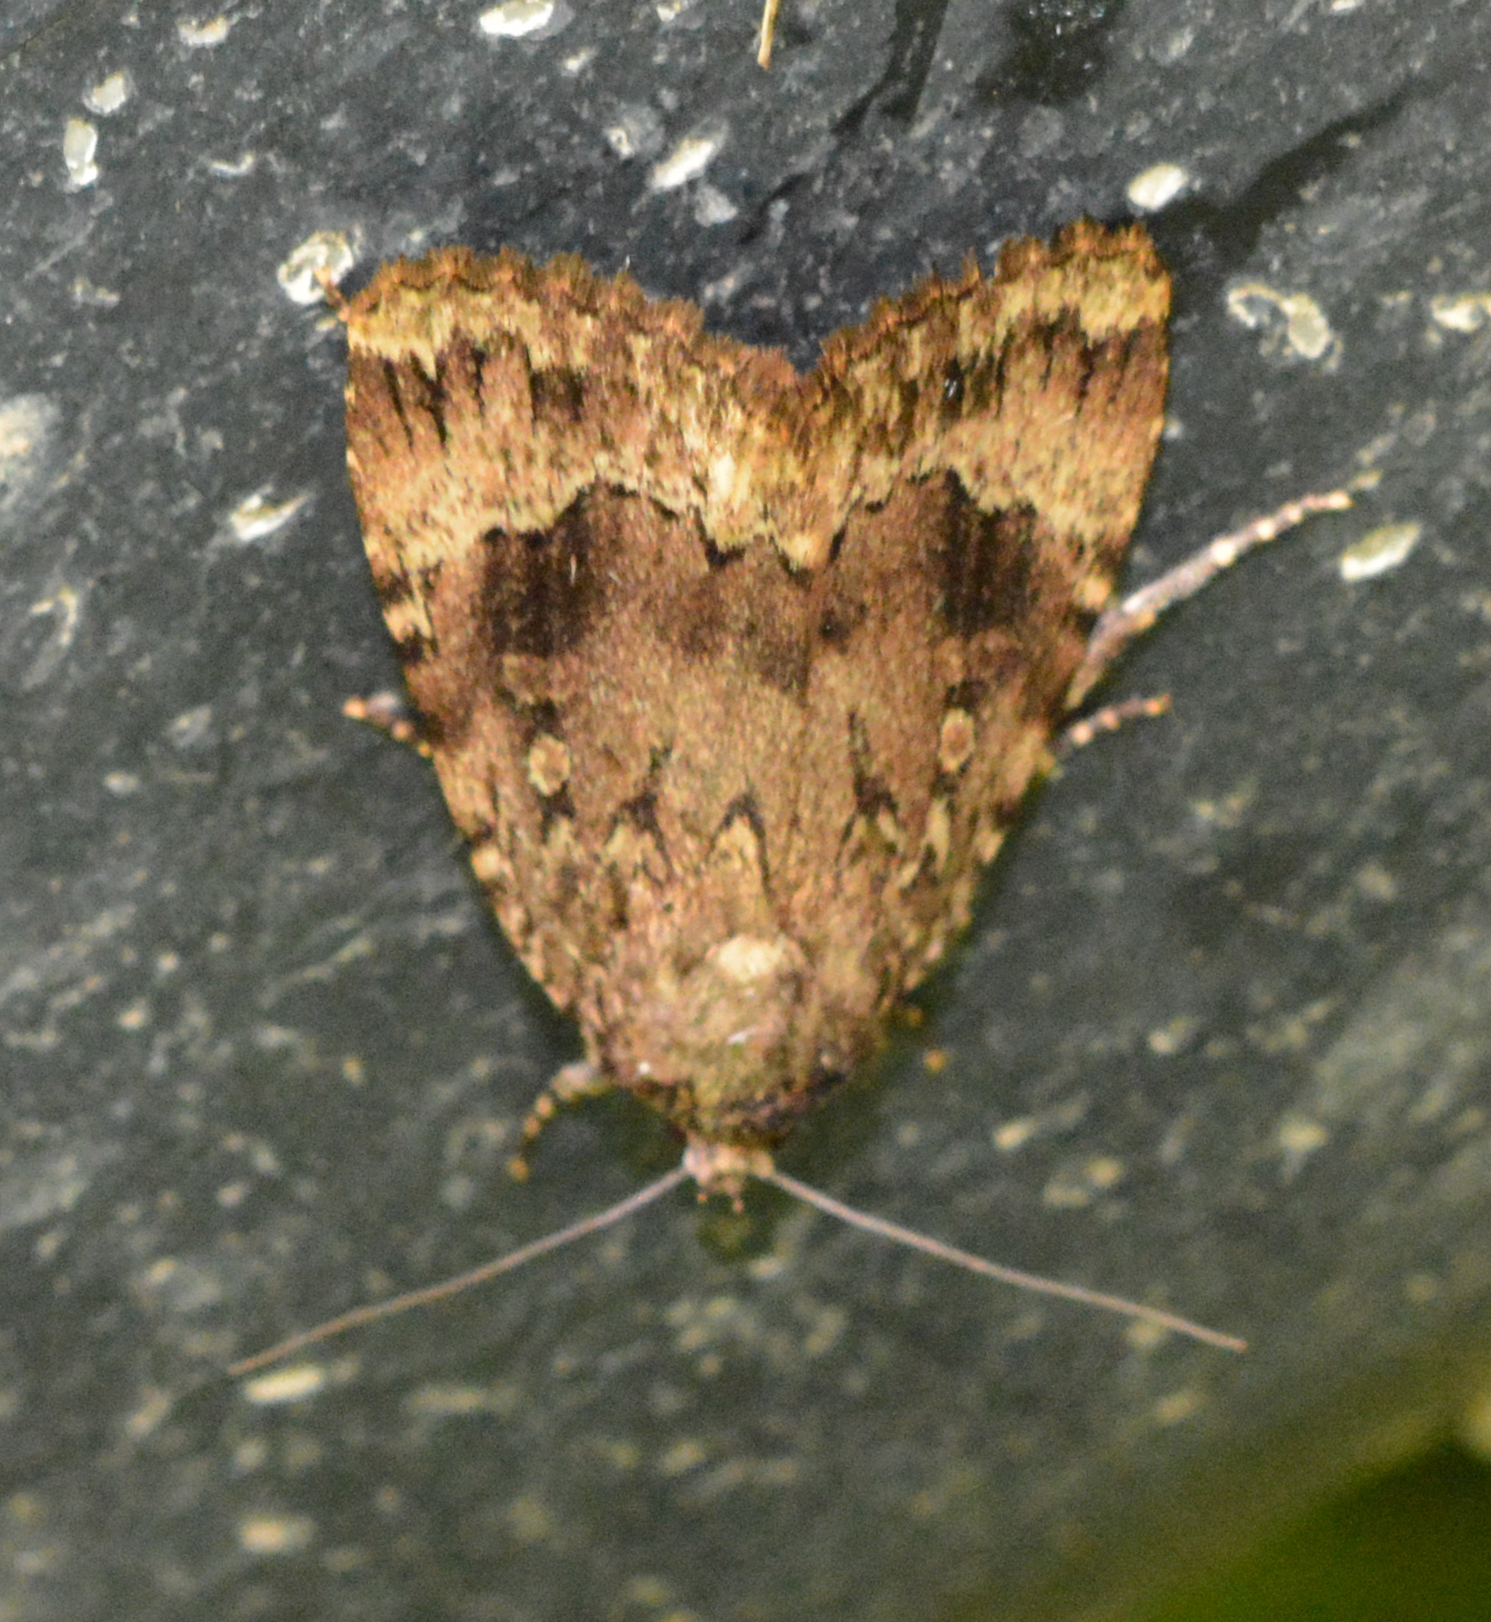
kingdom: Animalia
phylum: Arthropoda
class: Insecta
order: Lepidoptera
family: Noctuidae
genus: Amphipyra
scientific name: Amphipyra pyramidoides
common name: American copper underwing
